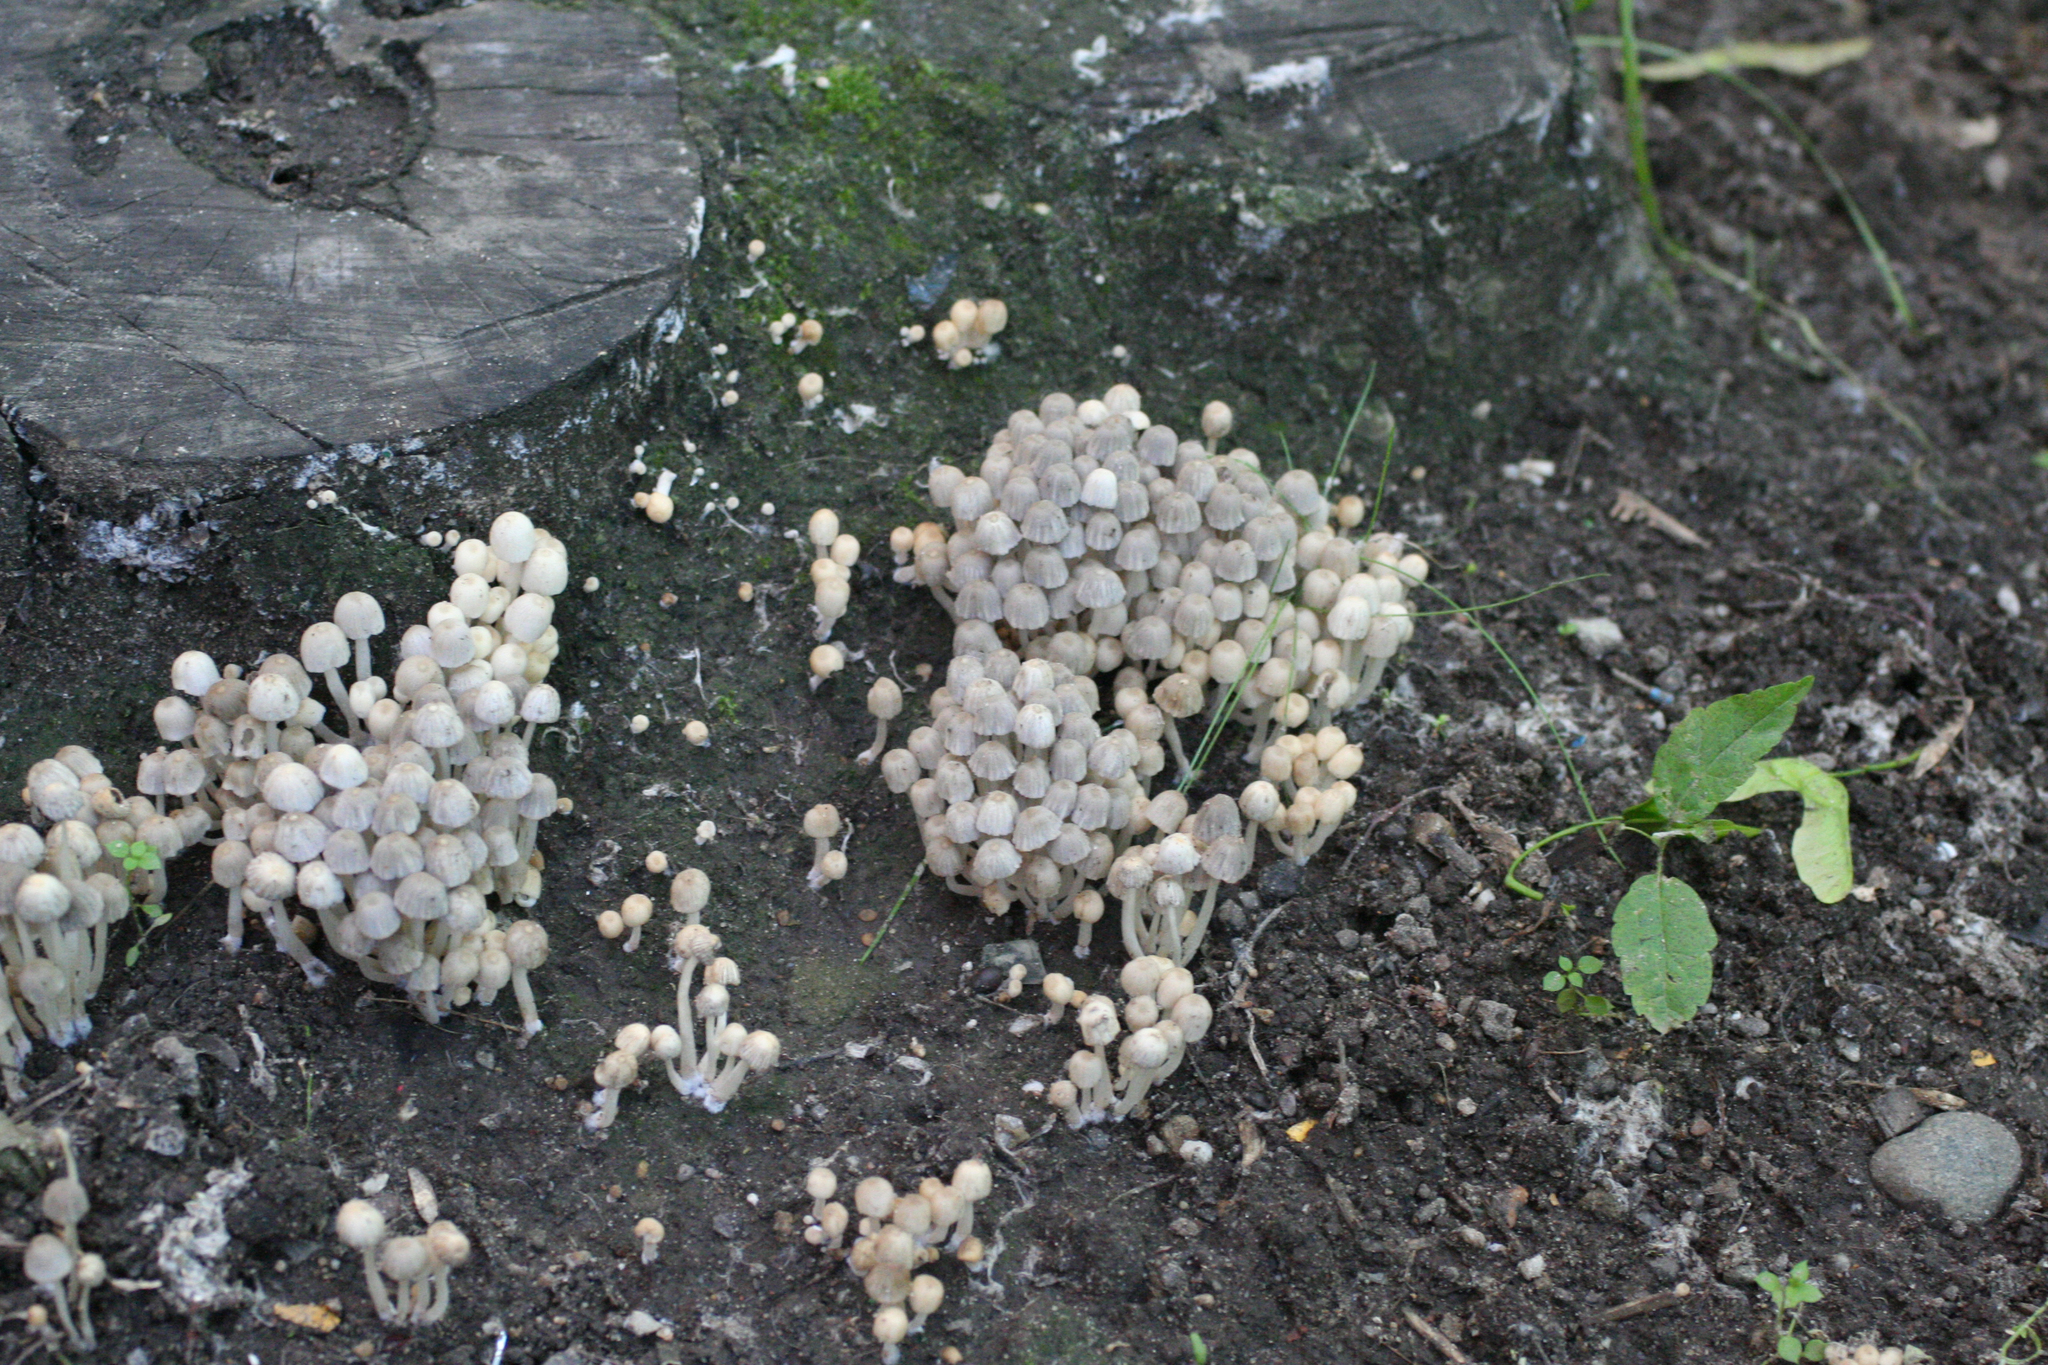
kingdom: Fungi
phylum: Basidiomycota
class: Agaricomycetes
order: Agaricales
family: Psathyrellaceae
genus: Coprinellus
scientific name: Coprinellus disseminatus
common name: Fairies' bonnets
